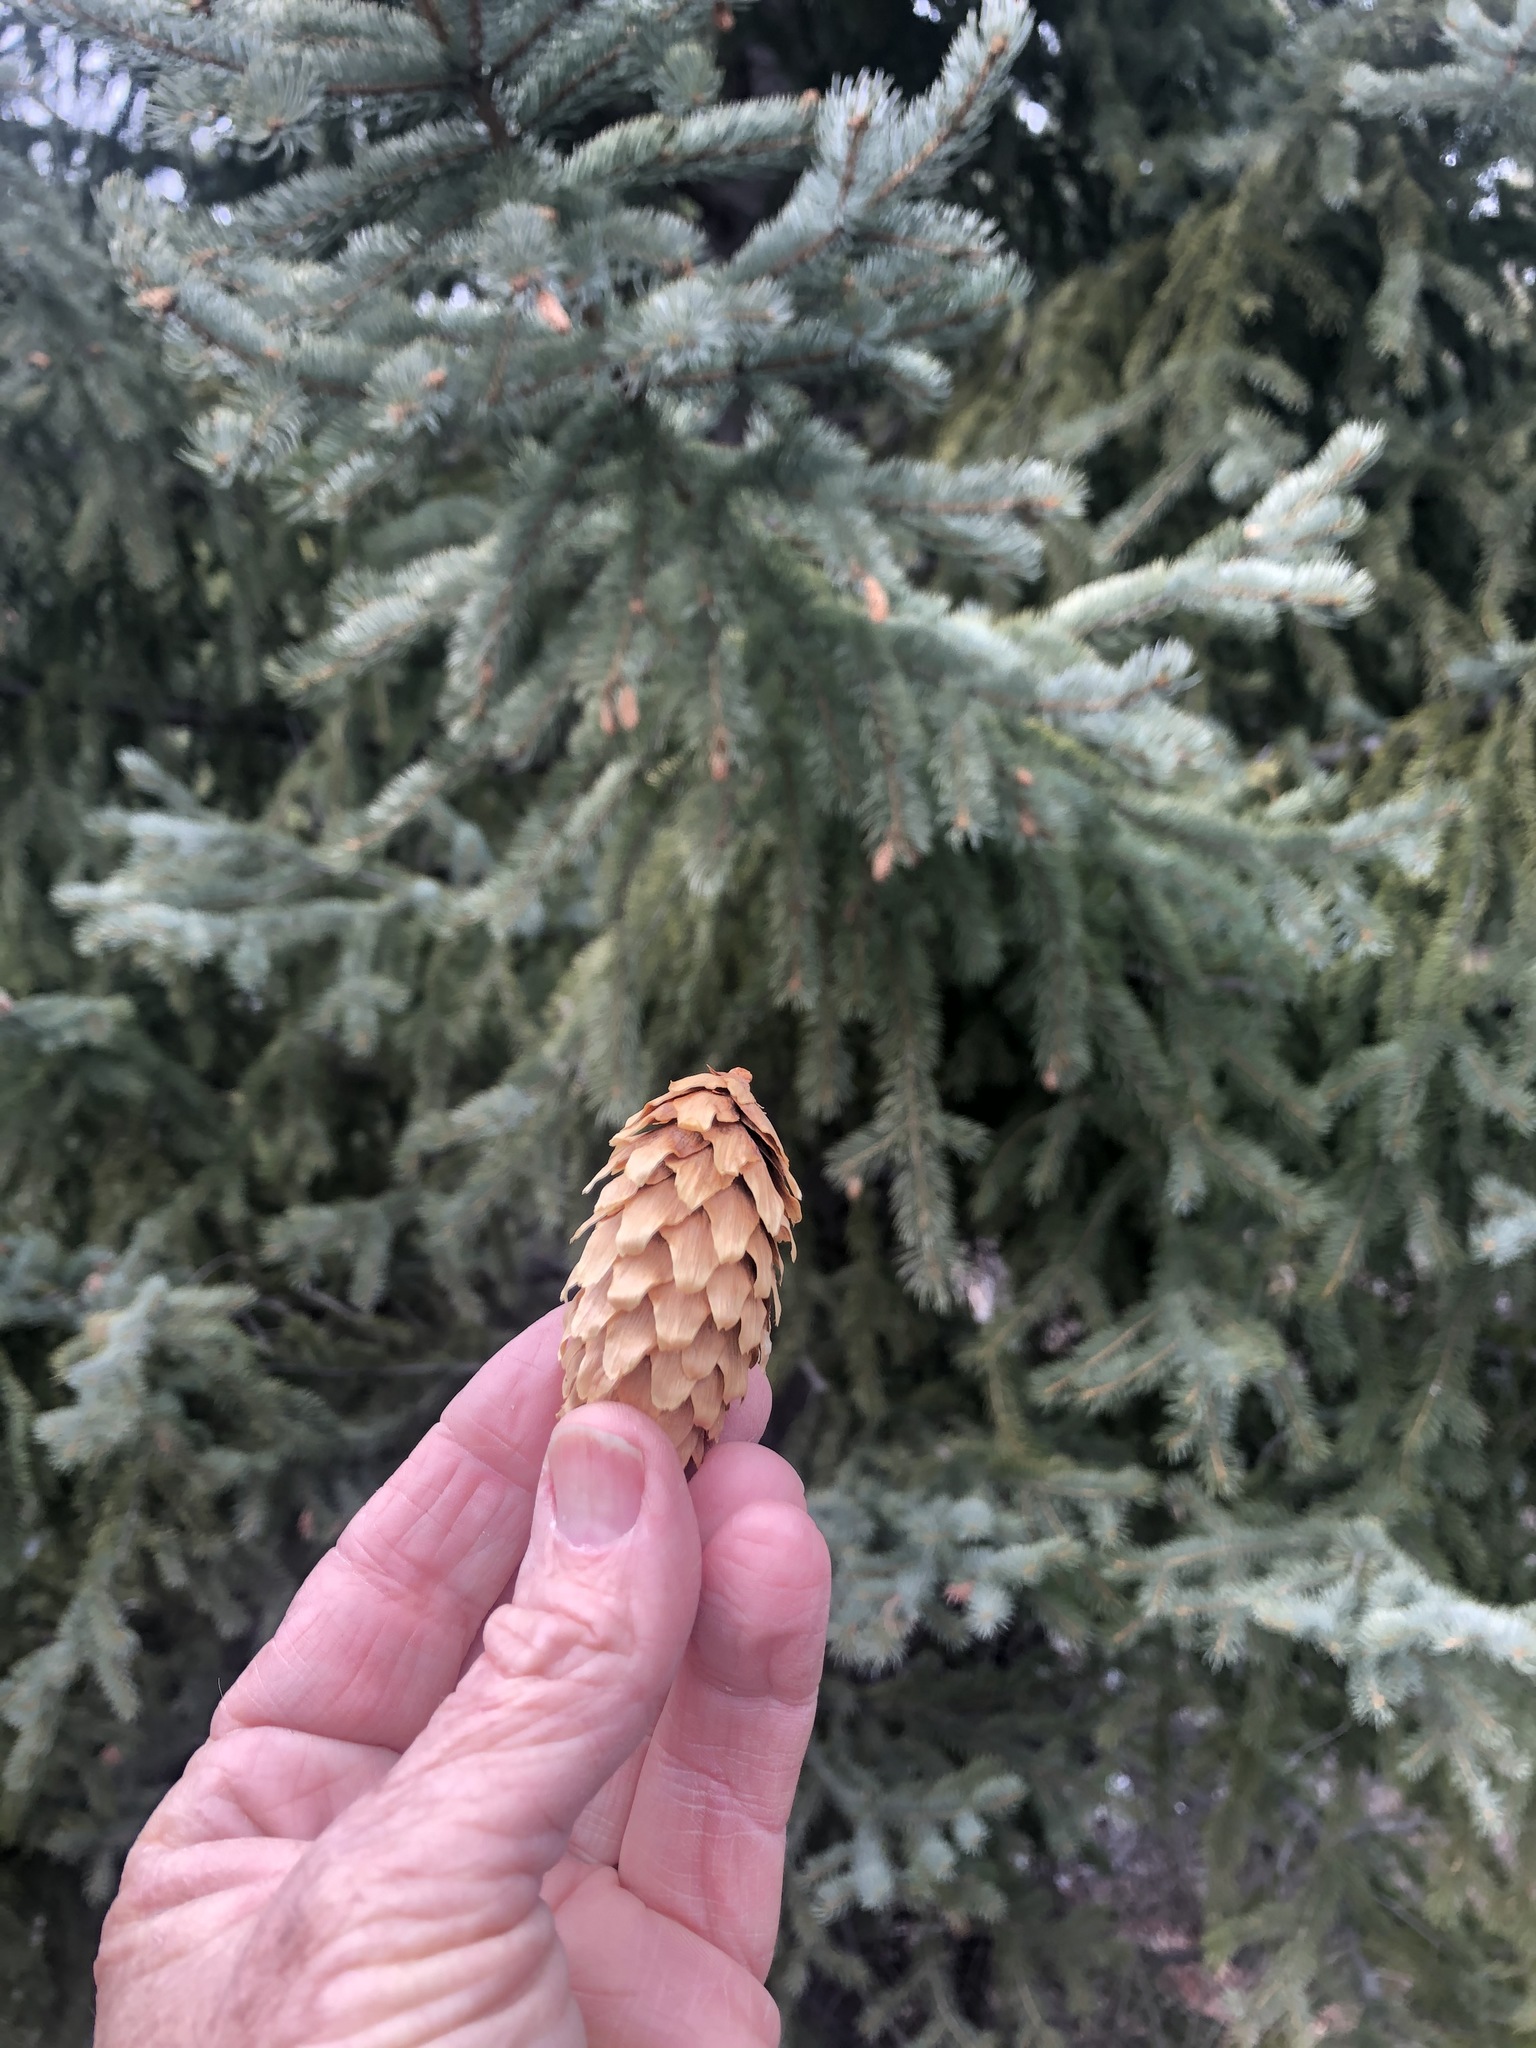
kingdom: Plantae
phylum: Tracheophyta
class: Pinopsida
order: Pinales
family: Pinaceae
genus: Picea
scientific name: Picea engelmannii
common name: Engelmann spruce
